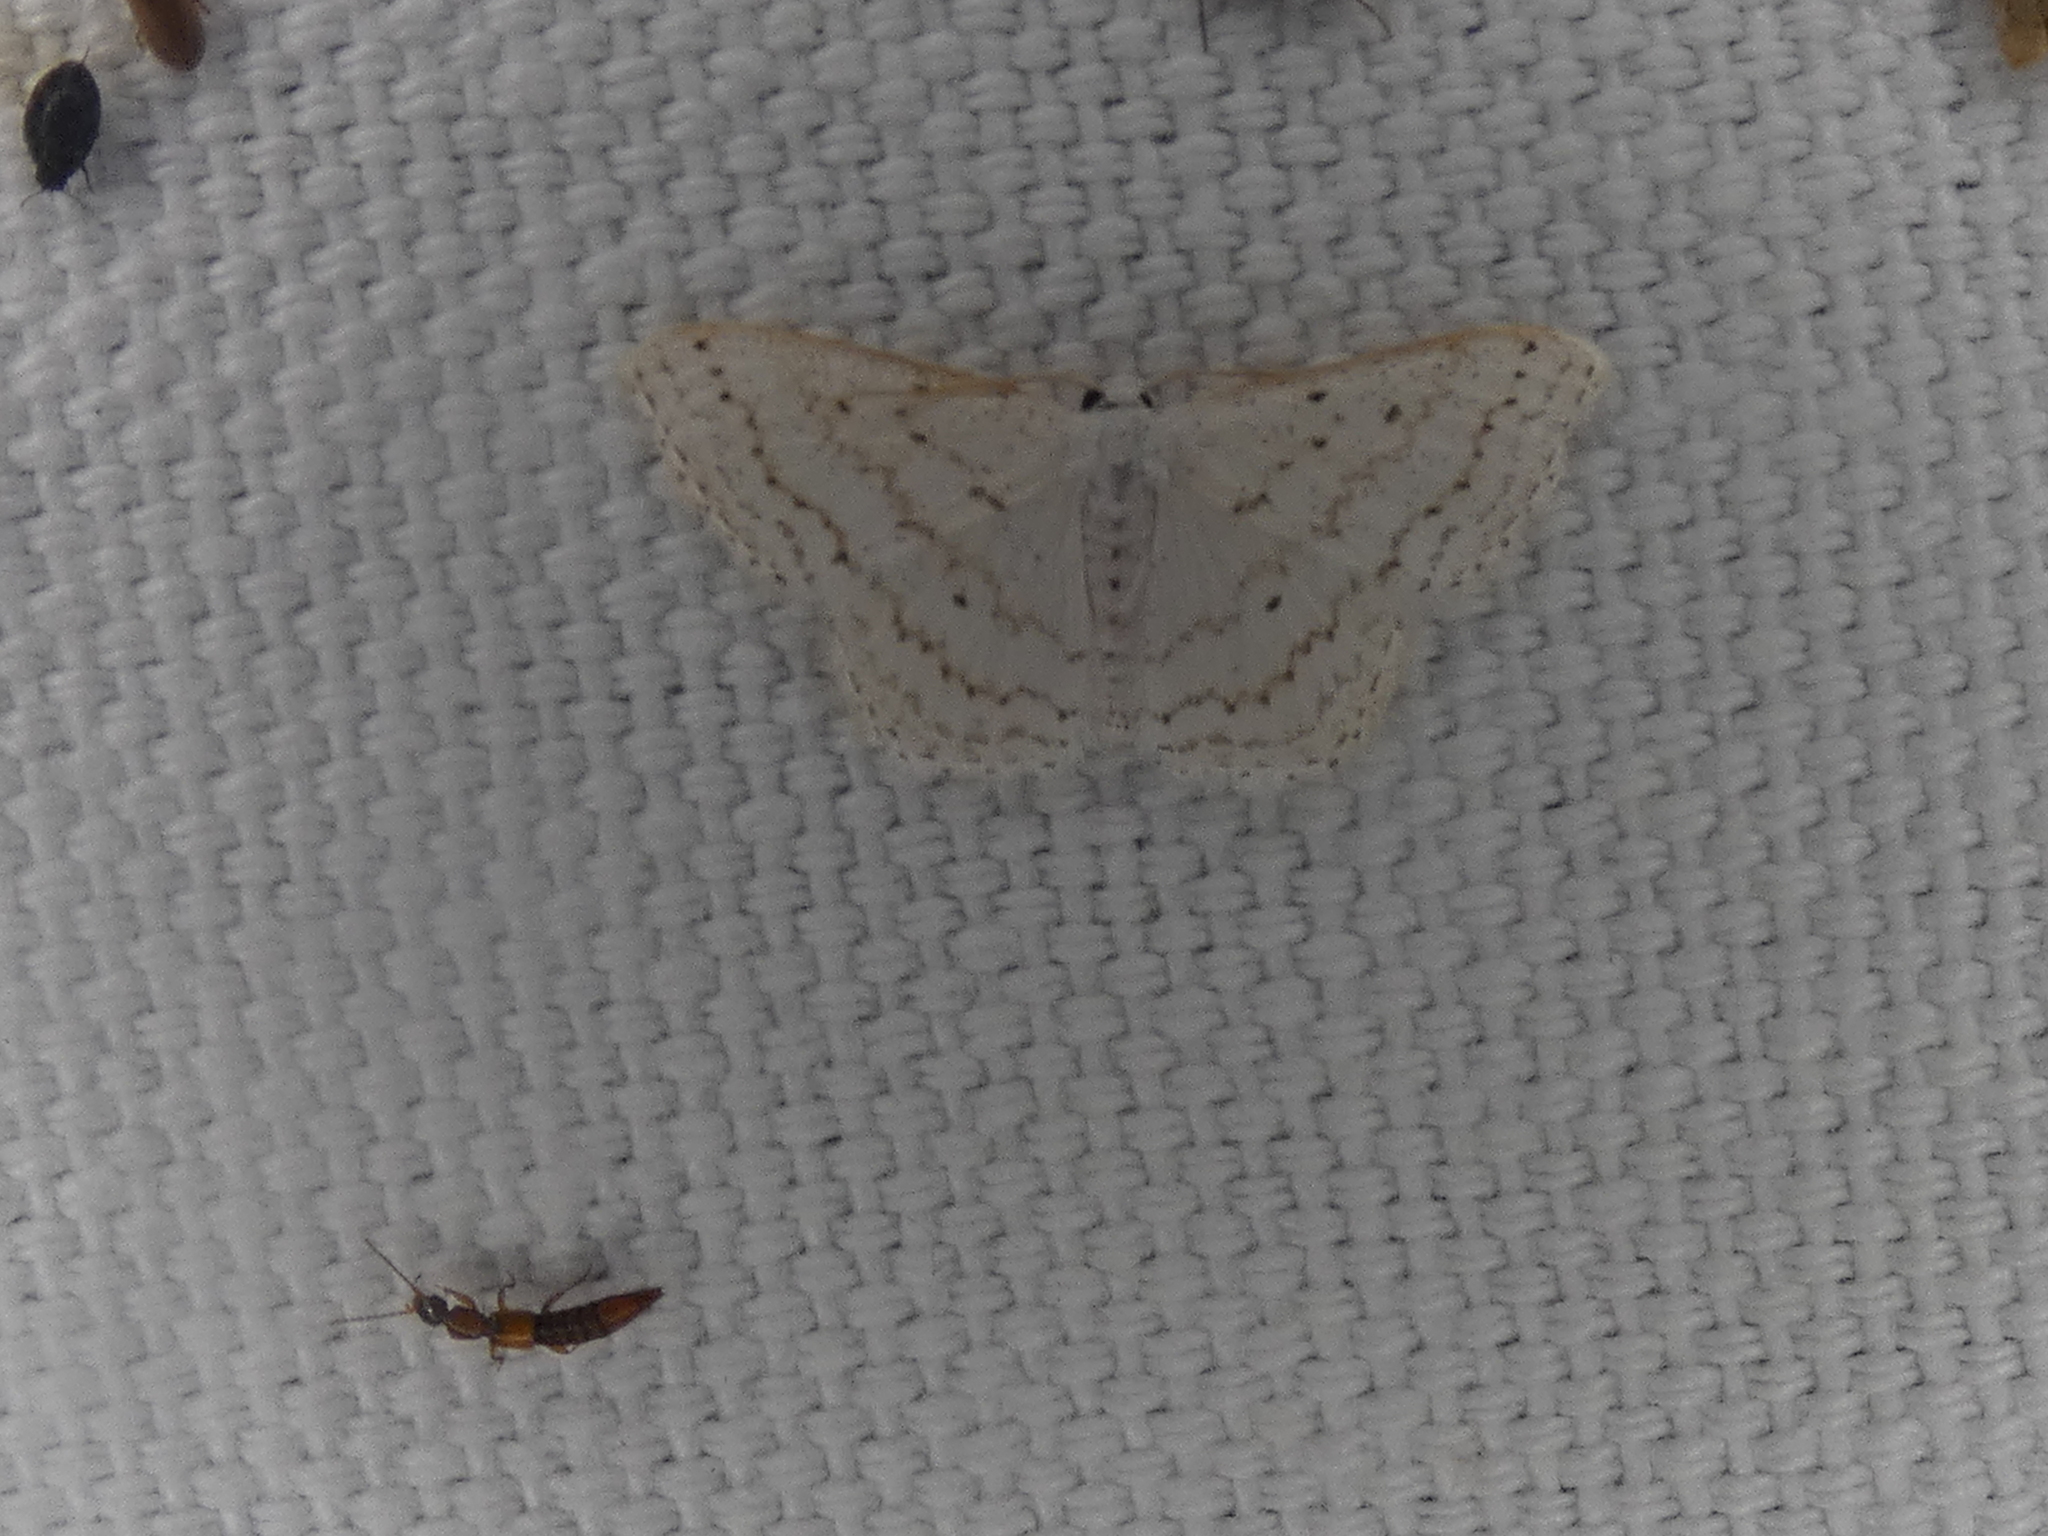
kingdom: Animalia
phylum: Arthropoda
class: Insecta
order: Lepidoptera
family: Geometridae
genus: Idaea
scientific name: Idaea tacturata
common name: Dot-lined wave
